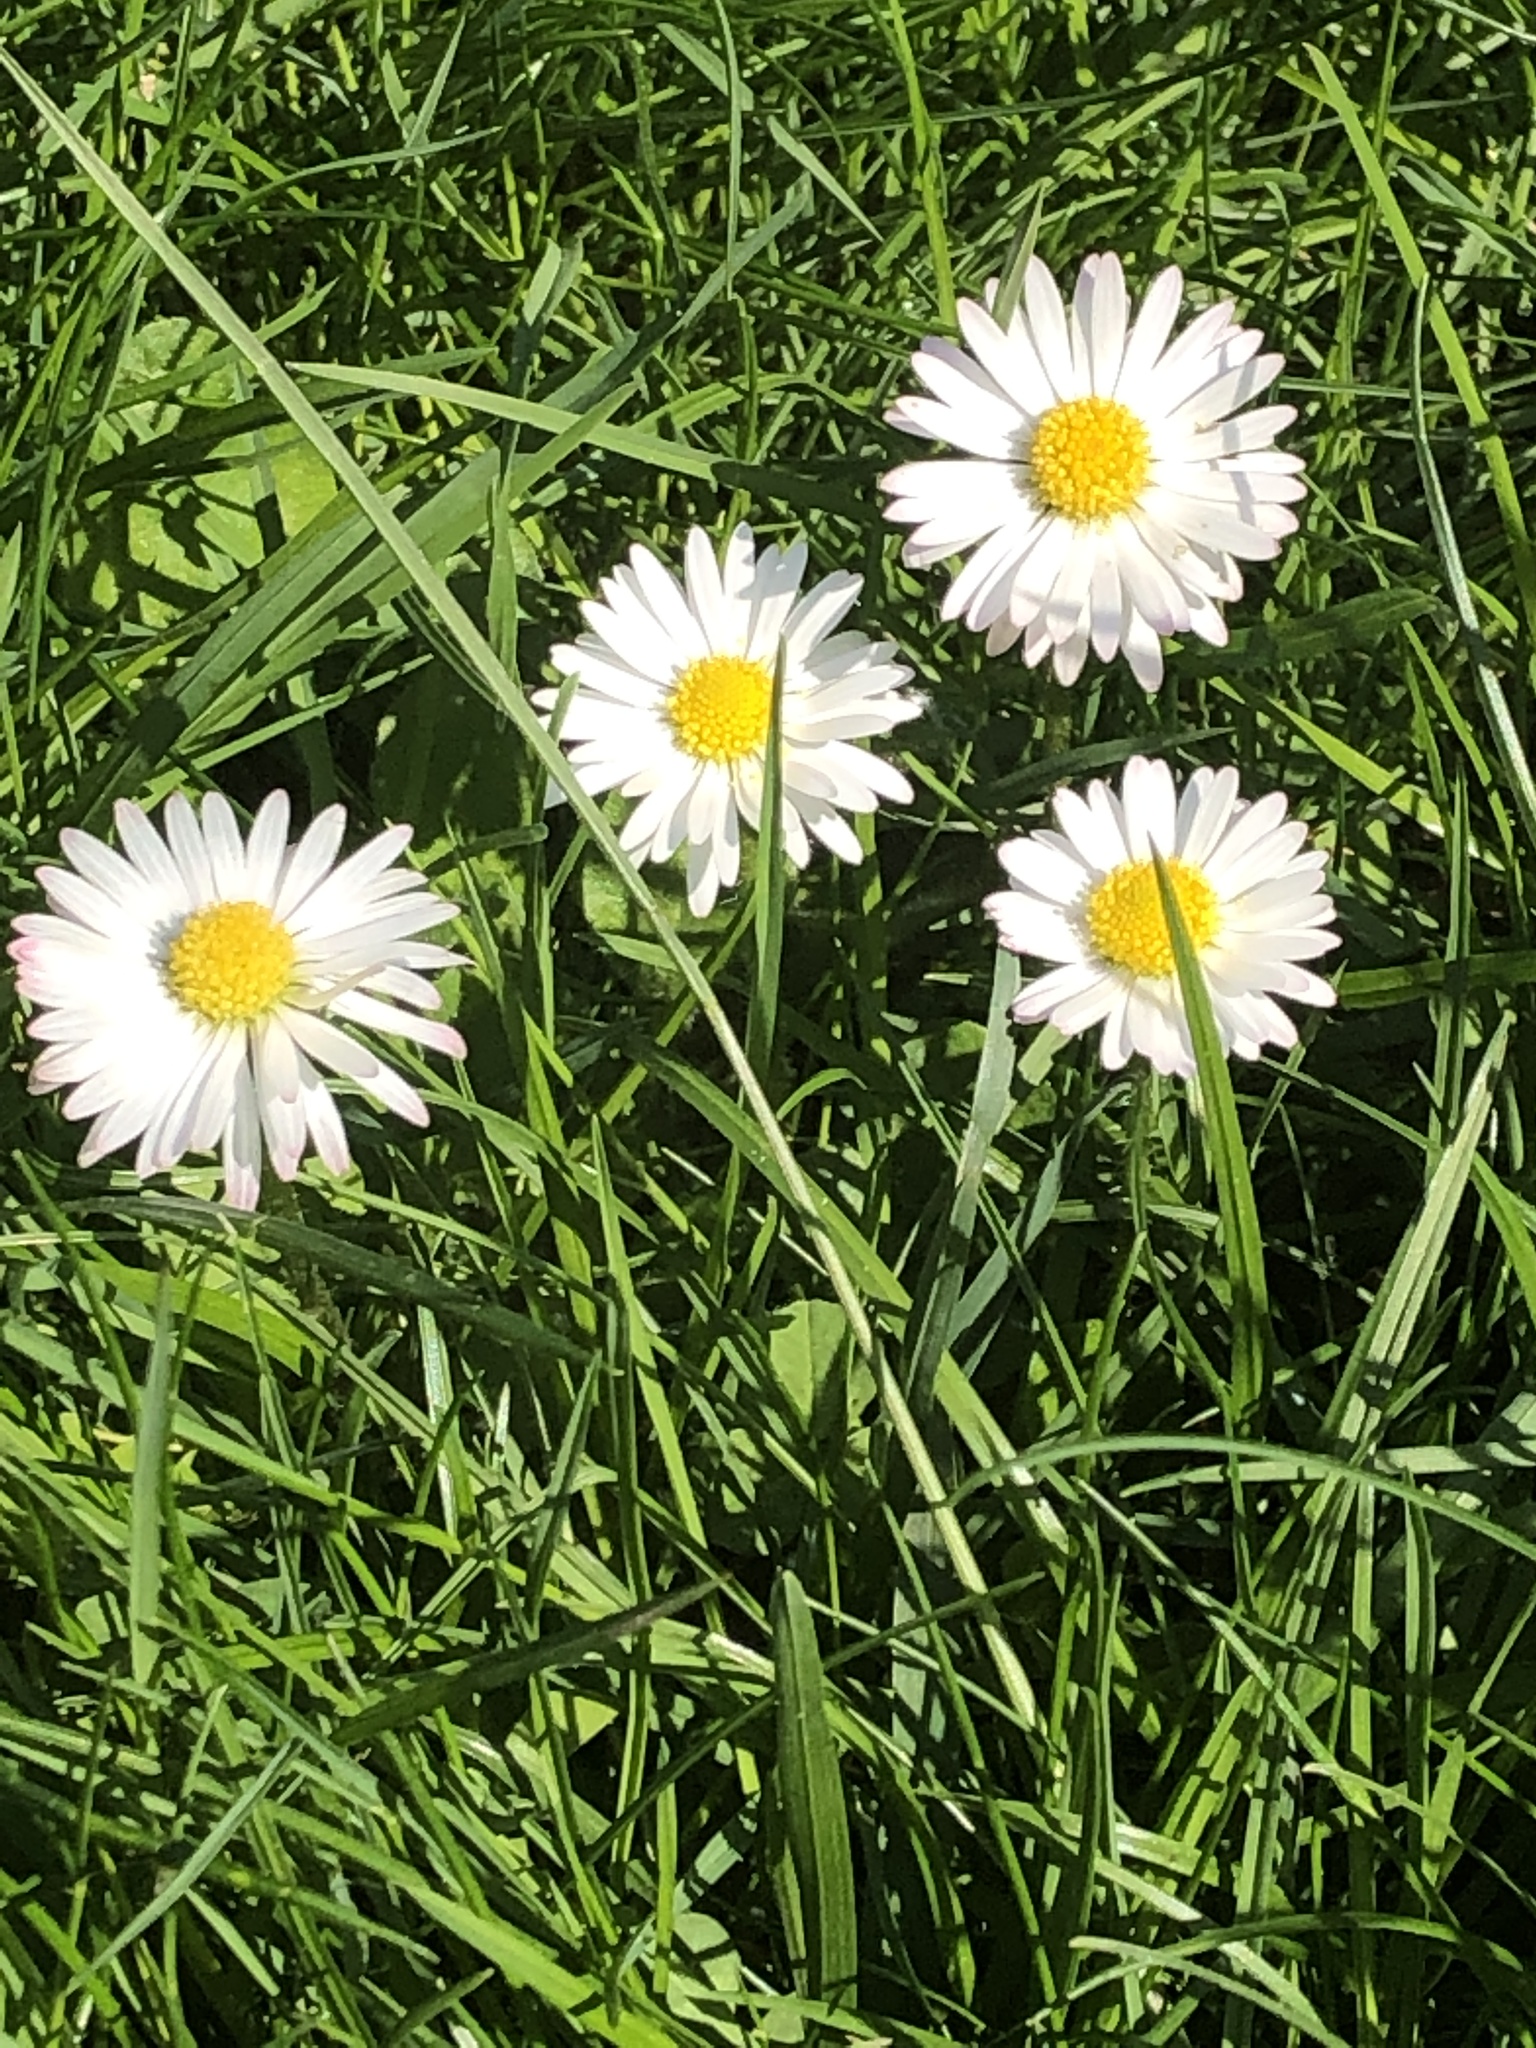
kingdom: Plantae
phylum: Tracheophyta
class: Magnoliopsida
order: Asterales
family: Asteraceae
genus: Bellis
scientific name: Bellis perennis
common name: Lawndaisy
